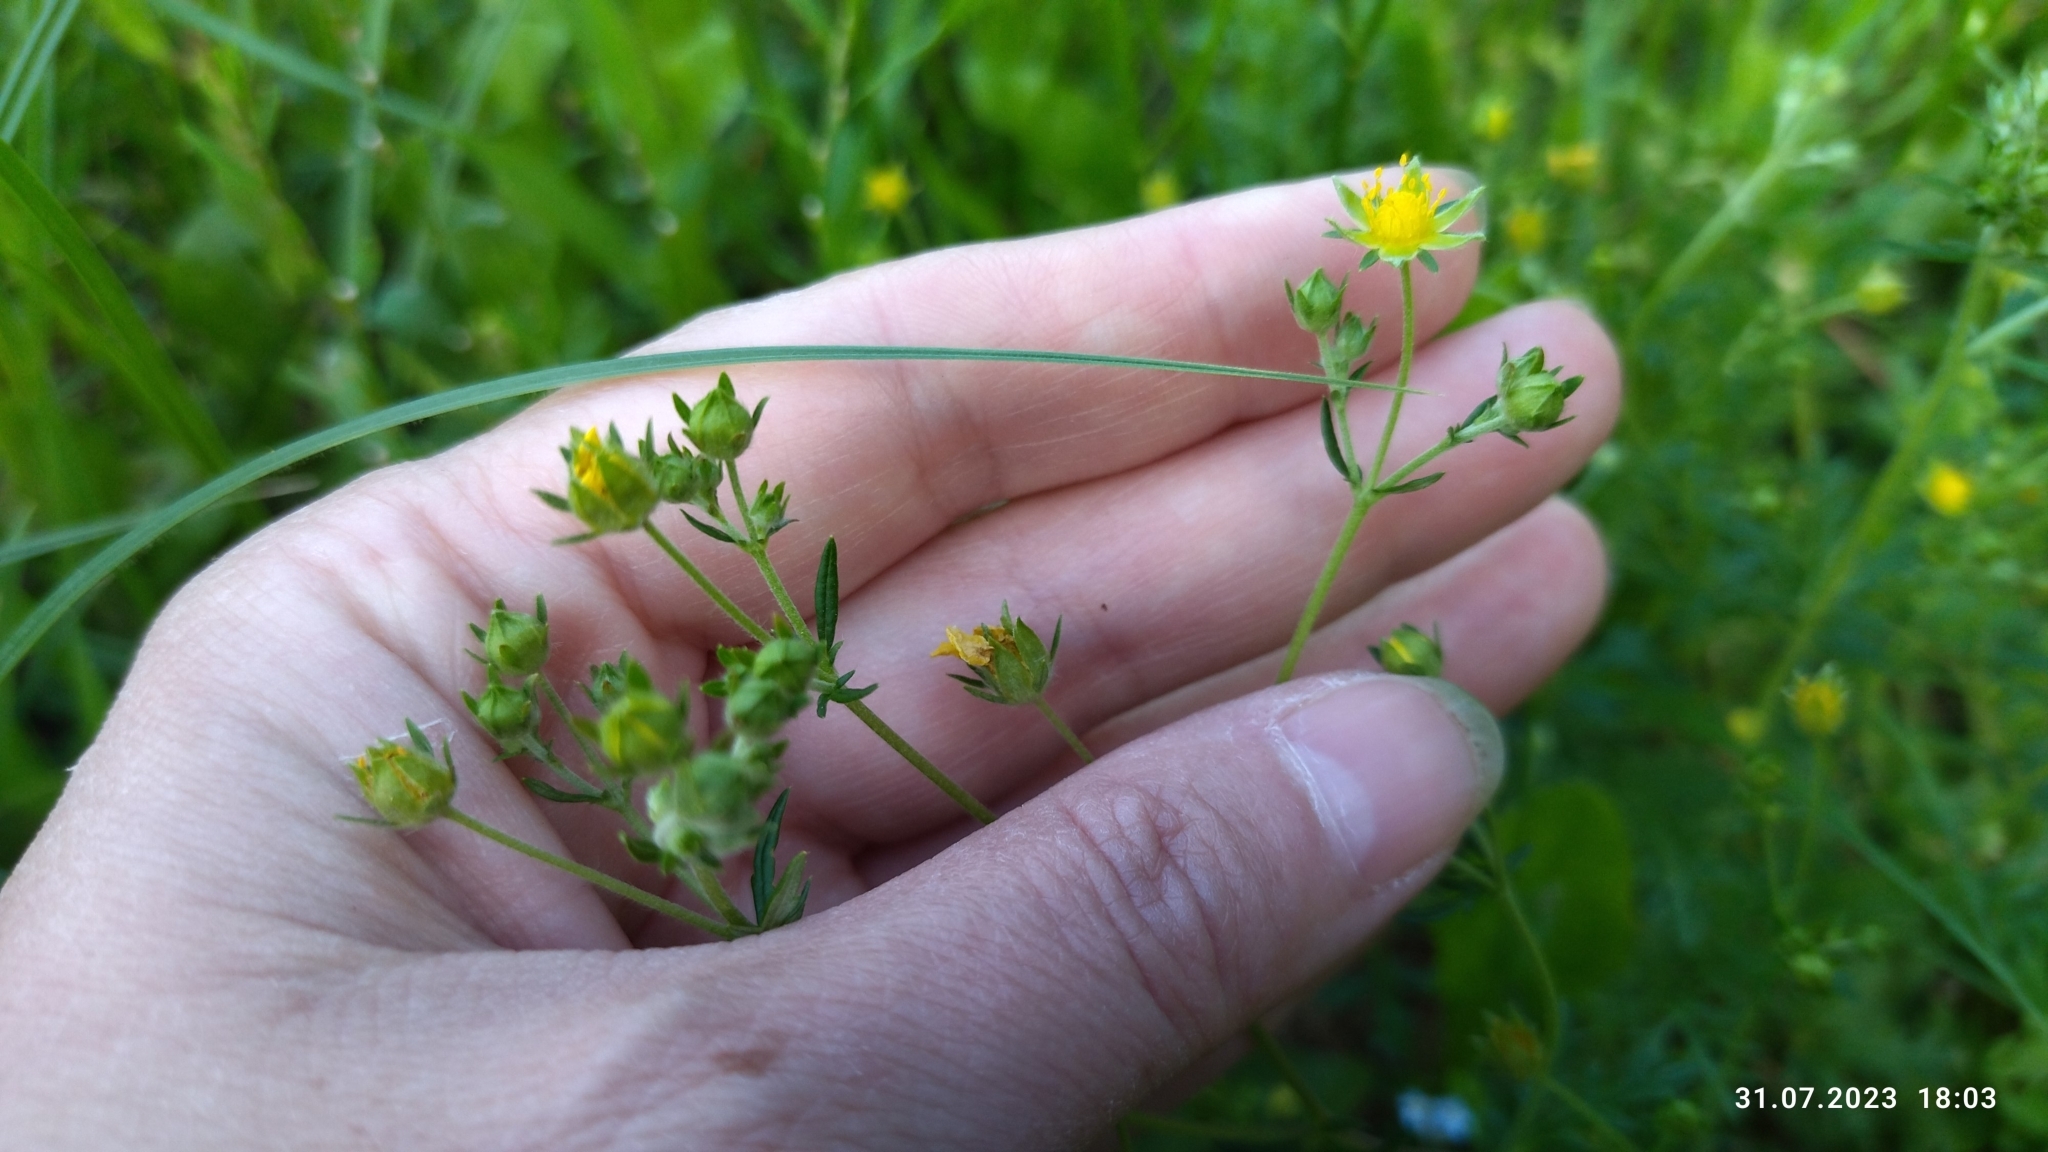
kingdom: Plantae
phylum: Tracheophyta
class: Magnoliopsida
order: Rosales
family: Rosaceae
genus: Potentilla
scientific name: Potentilla argentea
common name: Hoary cinquefoil
